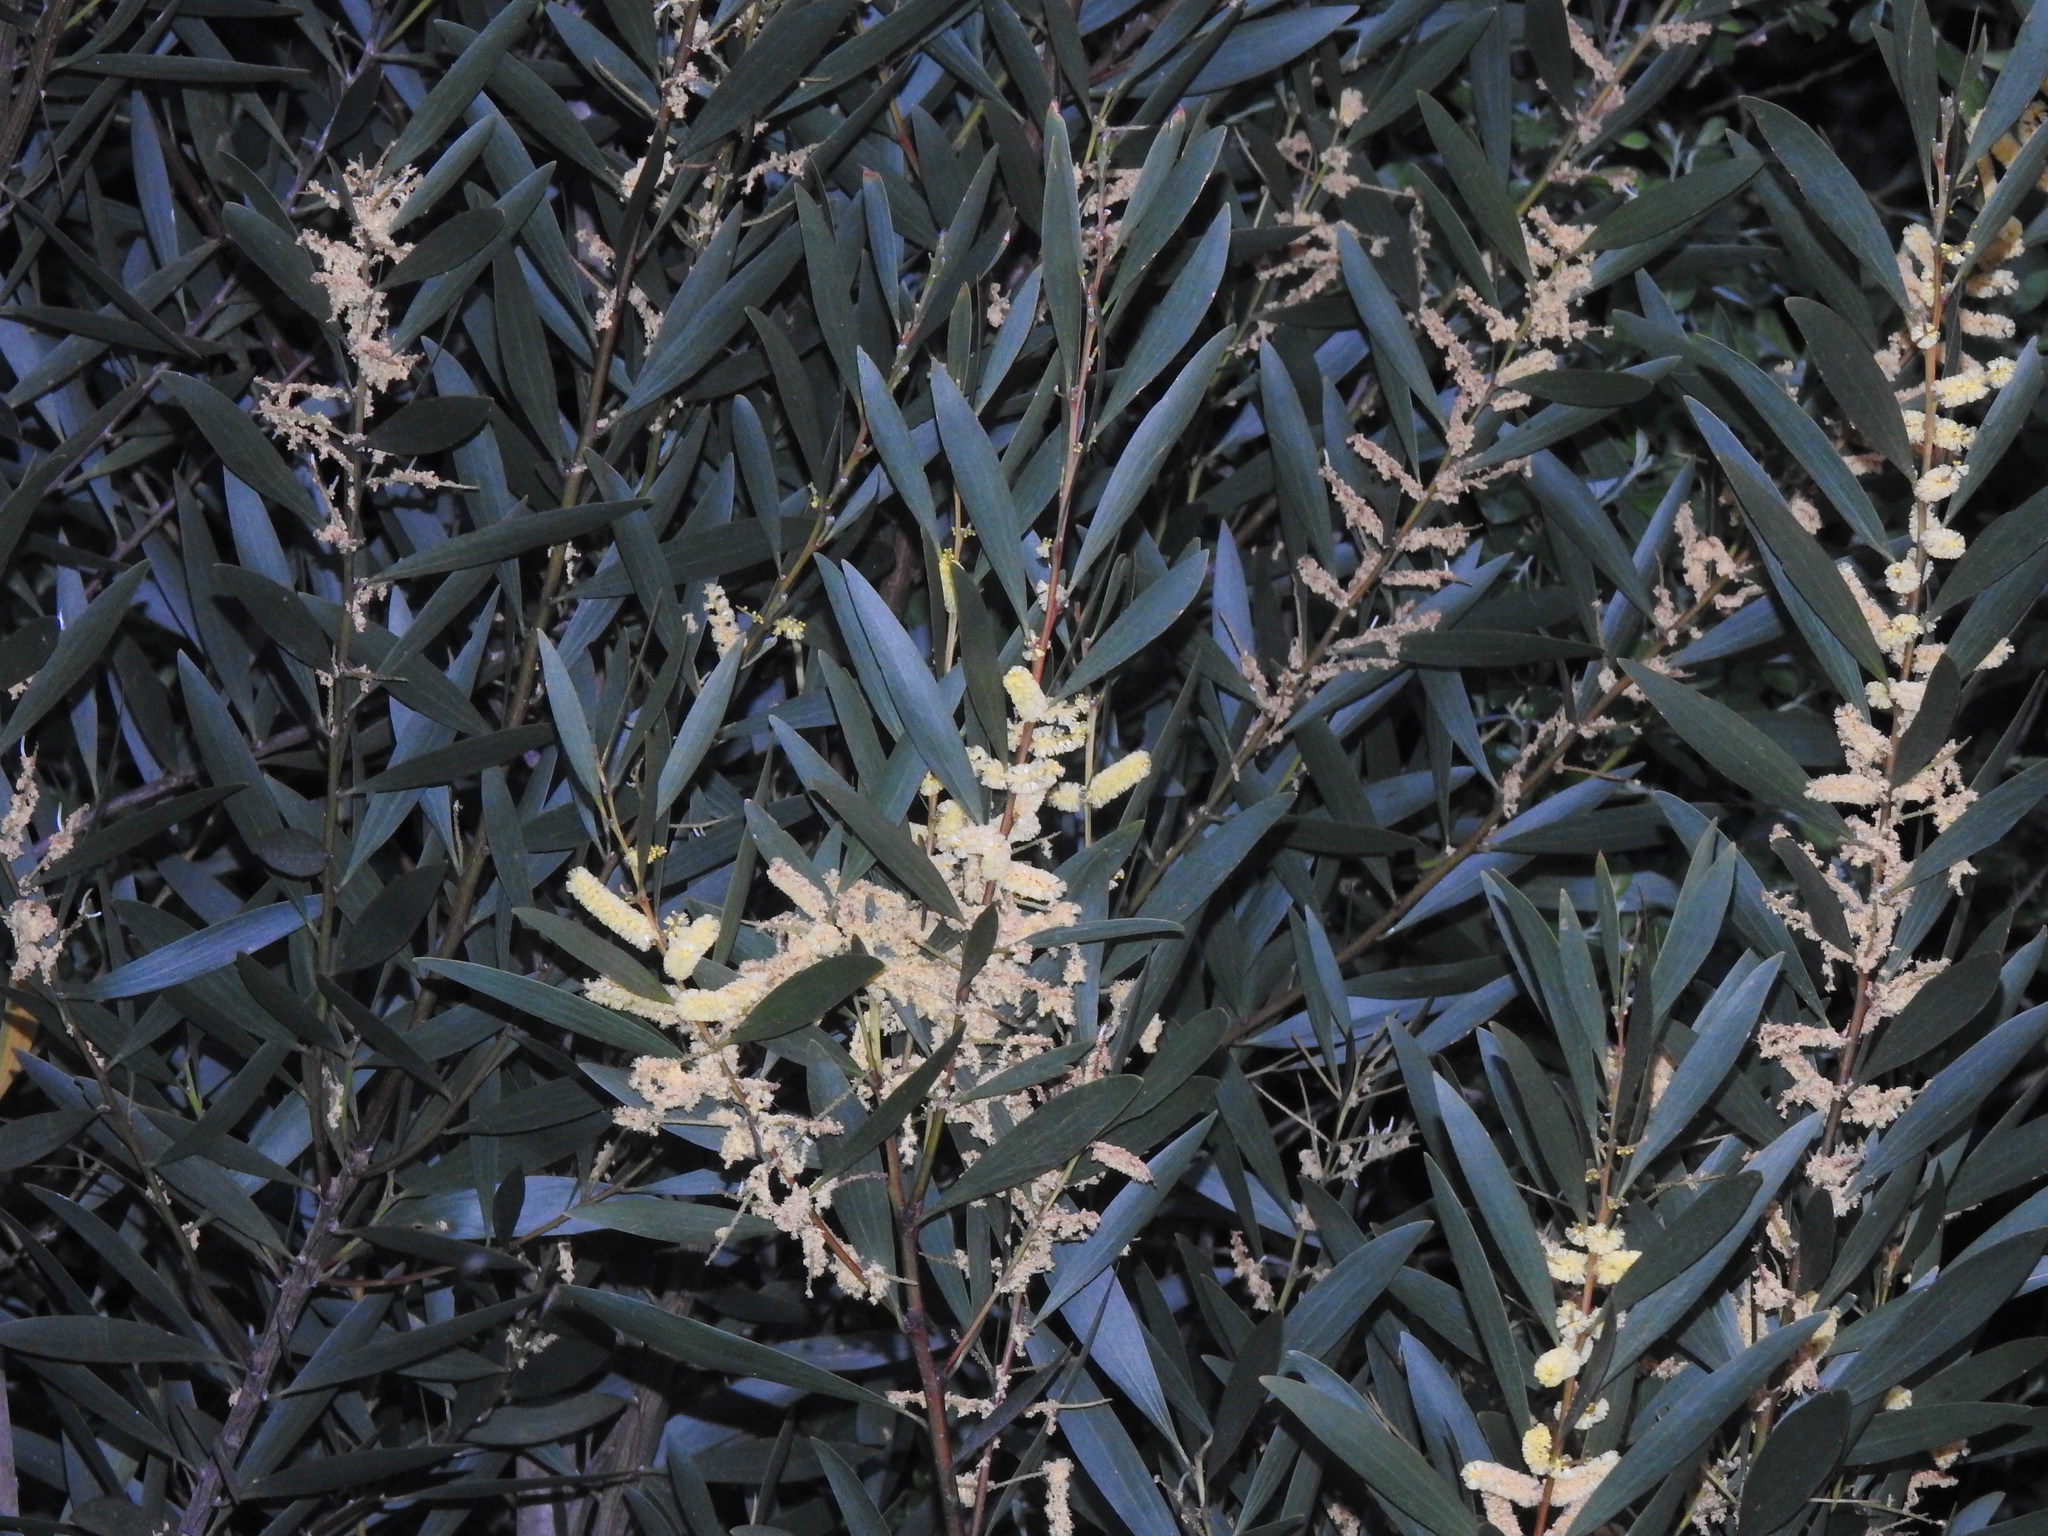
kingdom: Plantae
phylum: Tracheophyta
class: Magnoliopsida
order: Fabales
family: Fabaceae
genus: Acacia
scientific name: Acacia longifolia
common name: Sydney golden wattle
